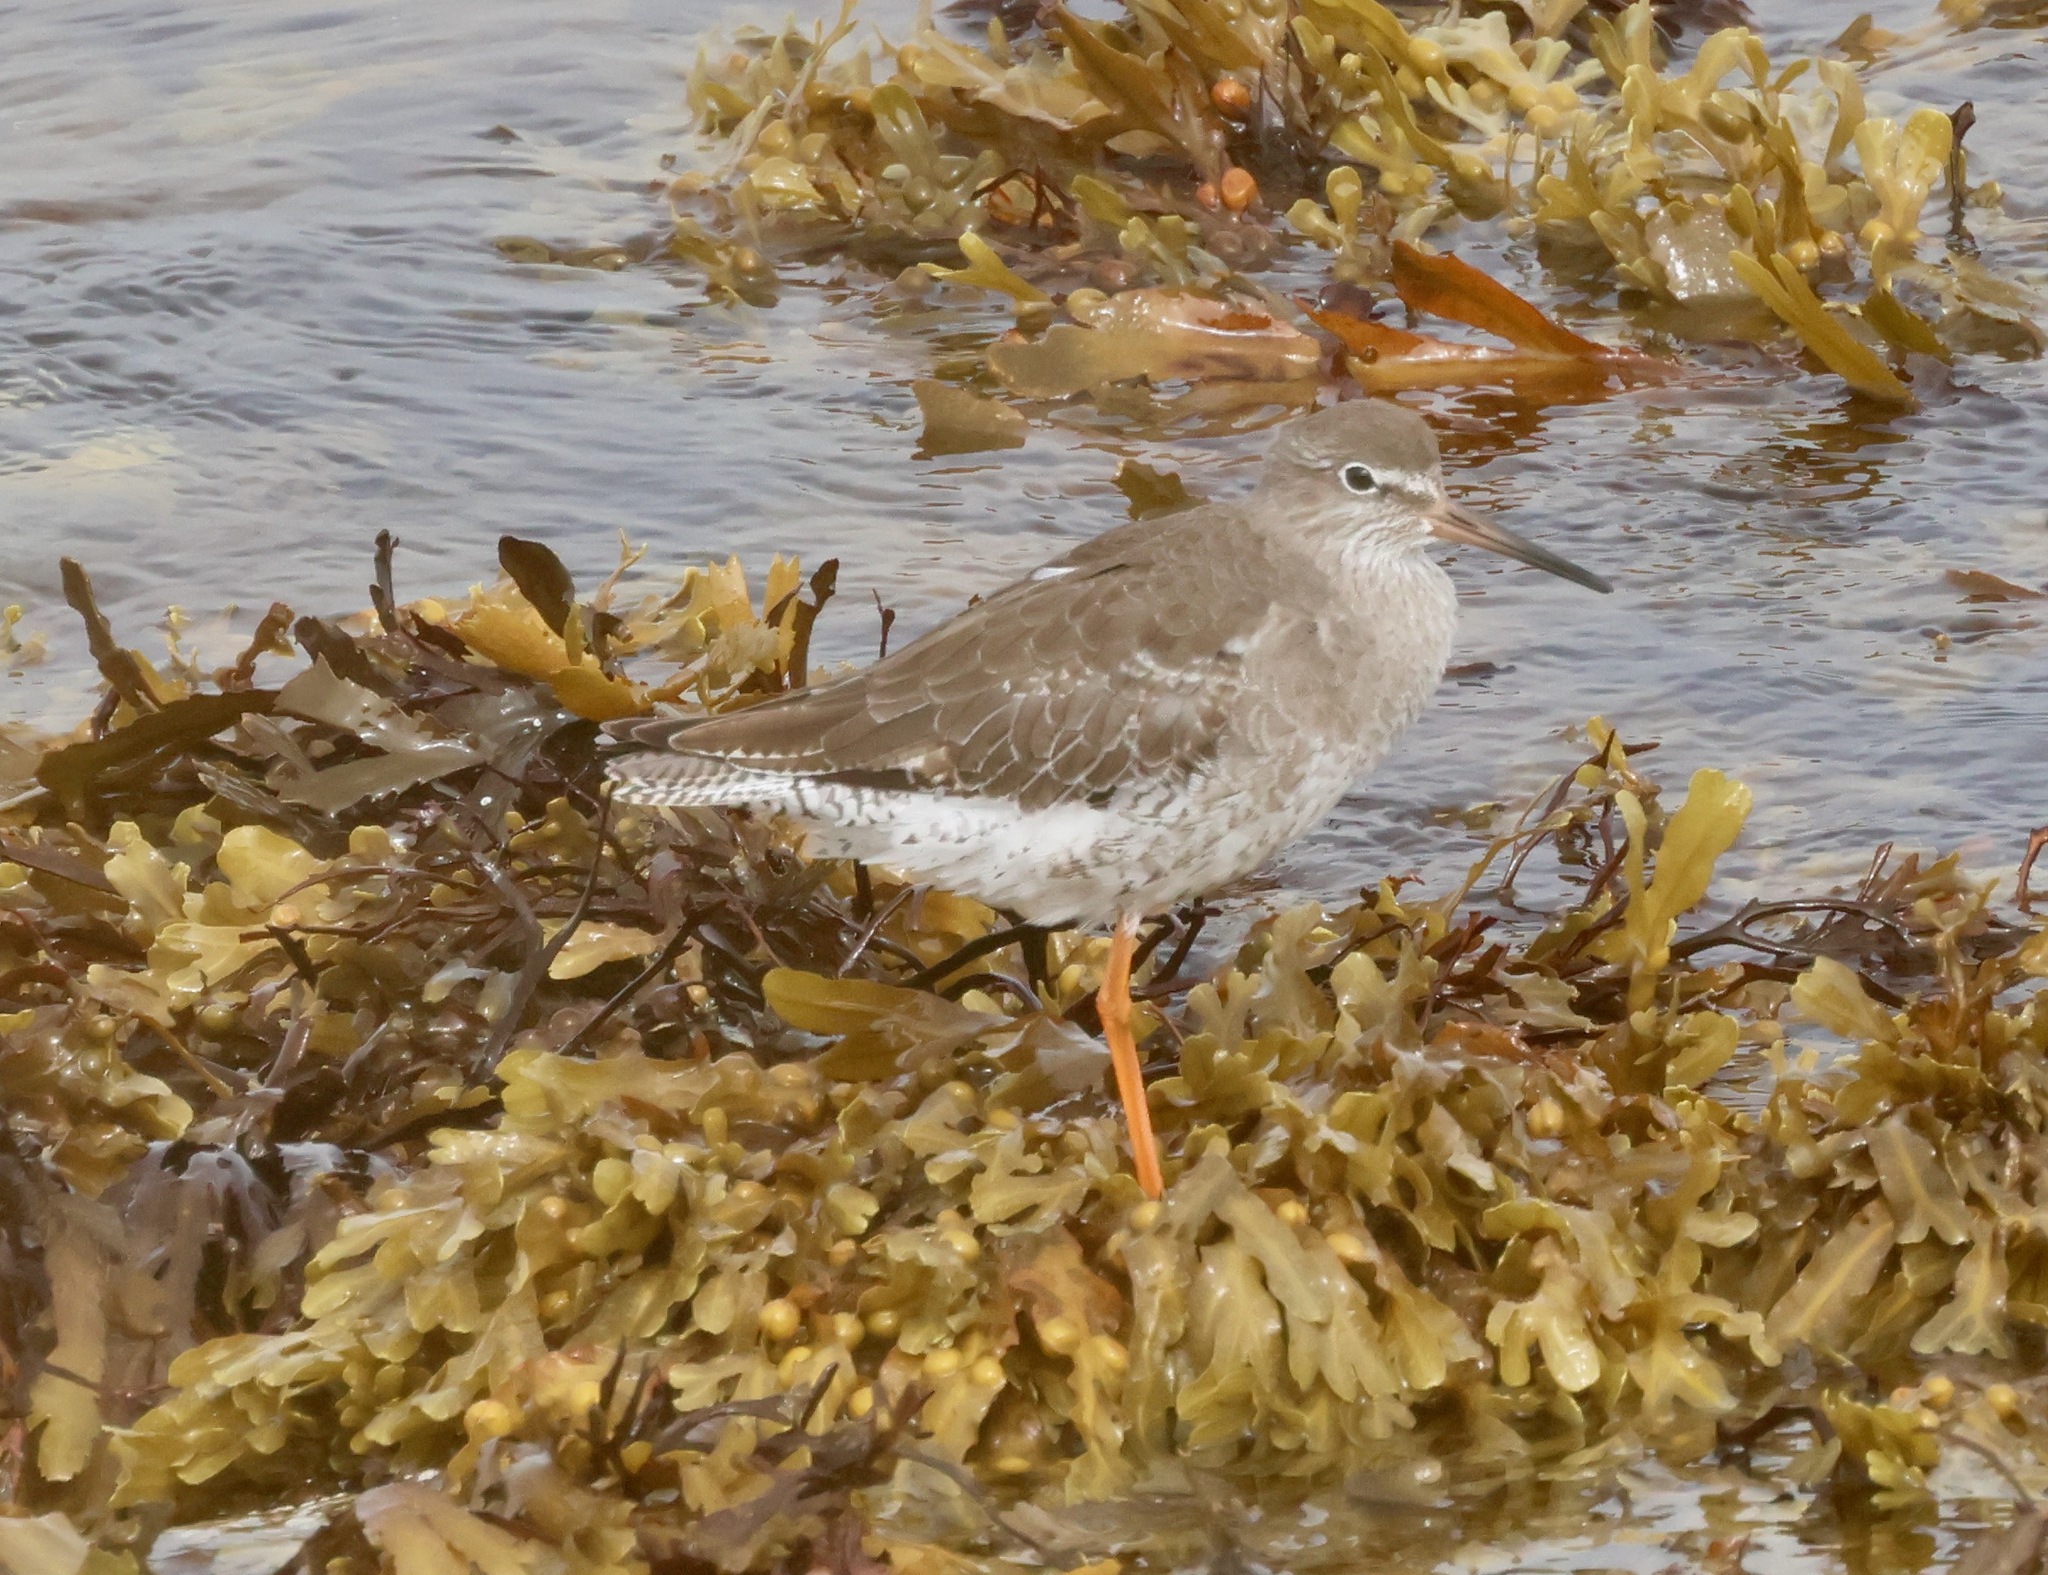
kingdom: Animalia
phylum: Chordata
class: Aves
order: Charadriiformes
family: Scolopacidae
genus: Tringa
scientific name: Tringa totanus
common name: Common redshank
